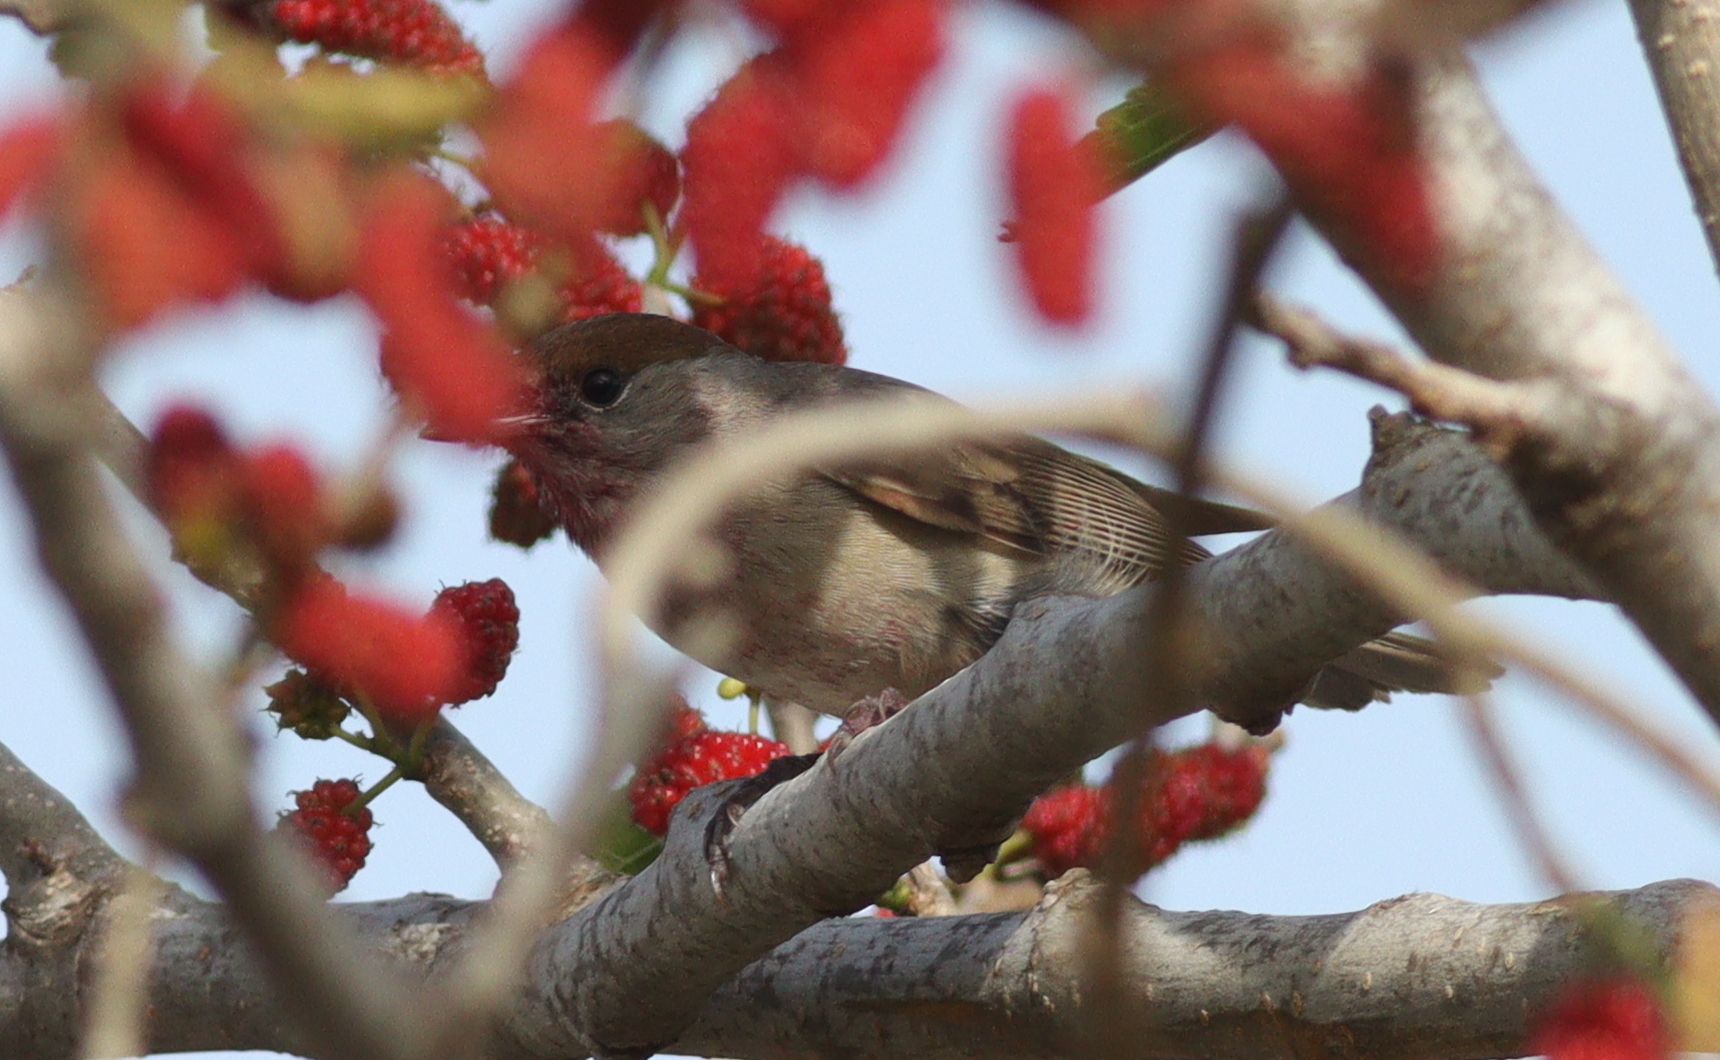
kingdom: Animalia
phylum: Chordata
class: Aves
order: Passeriformes
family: Sylviidae
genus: Sylvia
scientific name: Sylvia atricapilla
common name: Eurasian blackcap
